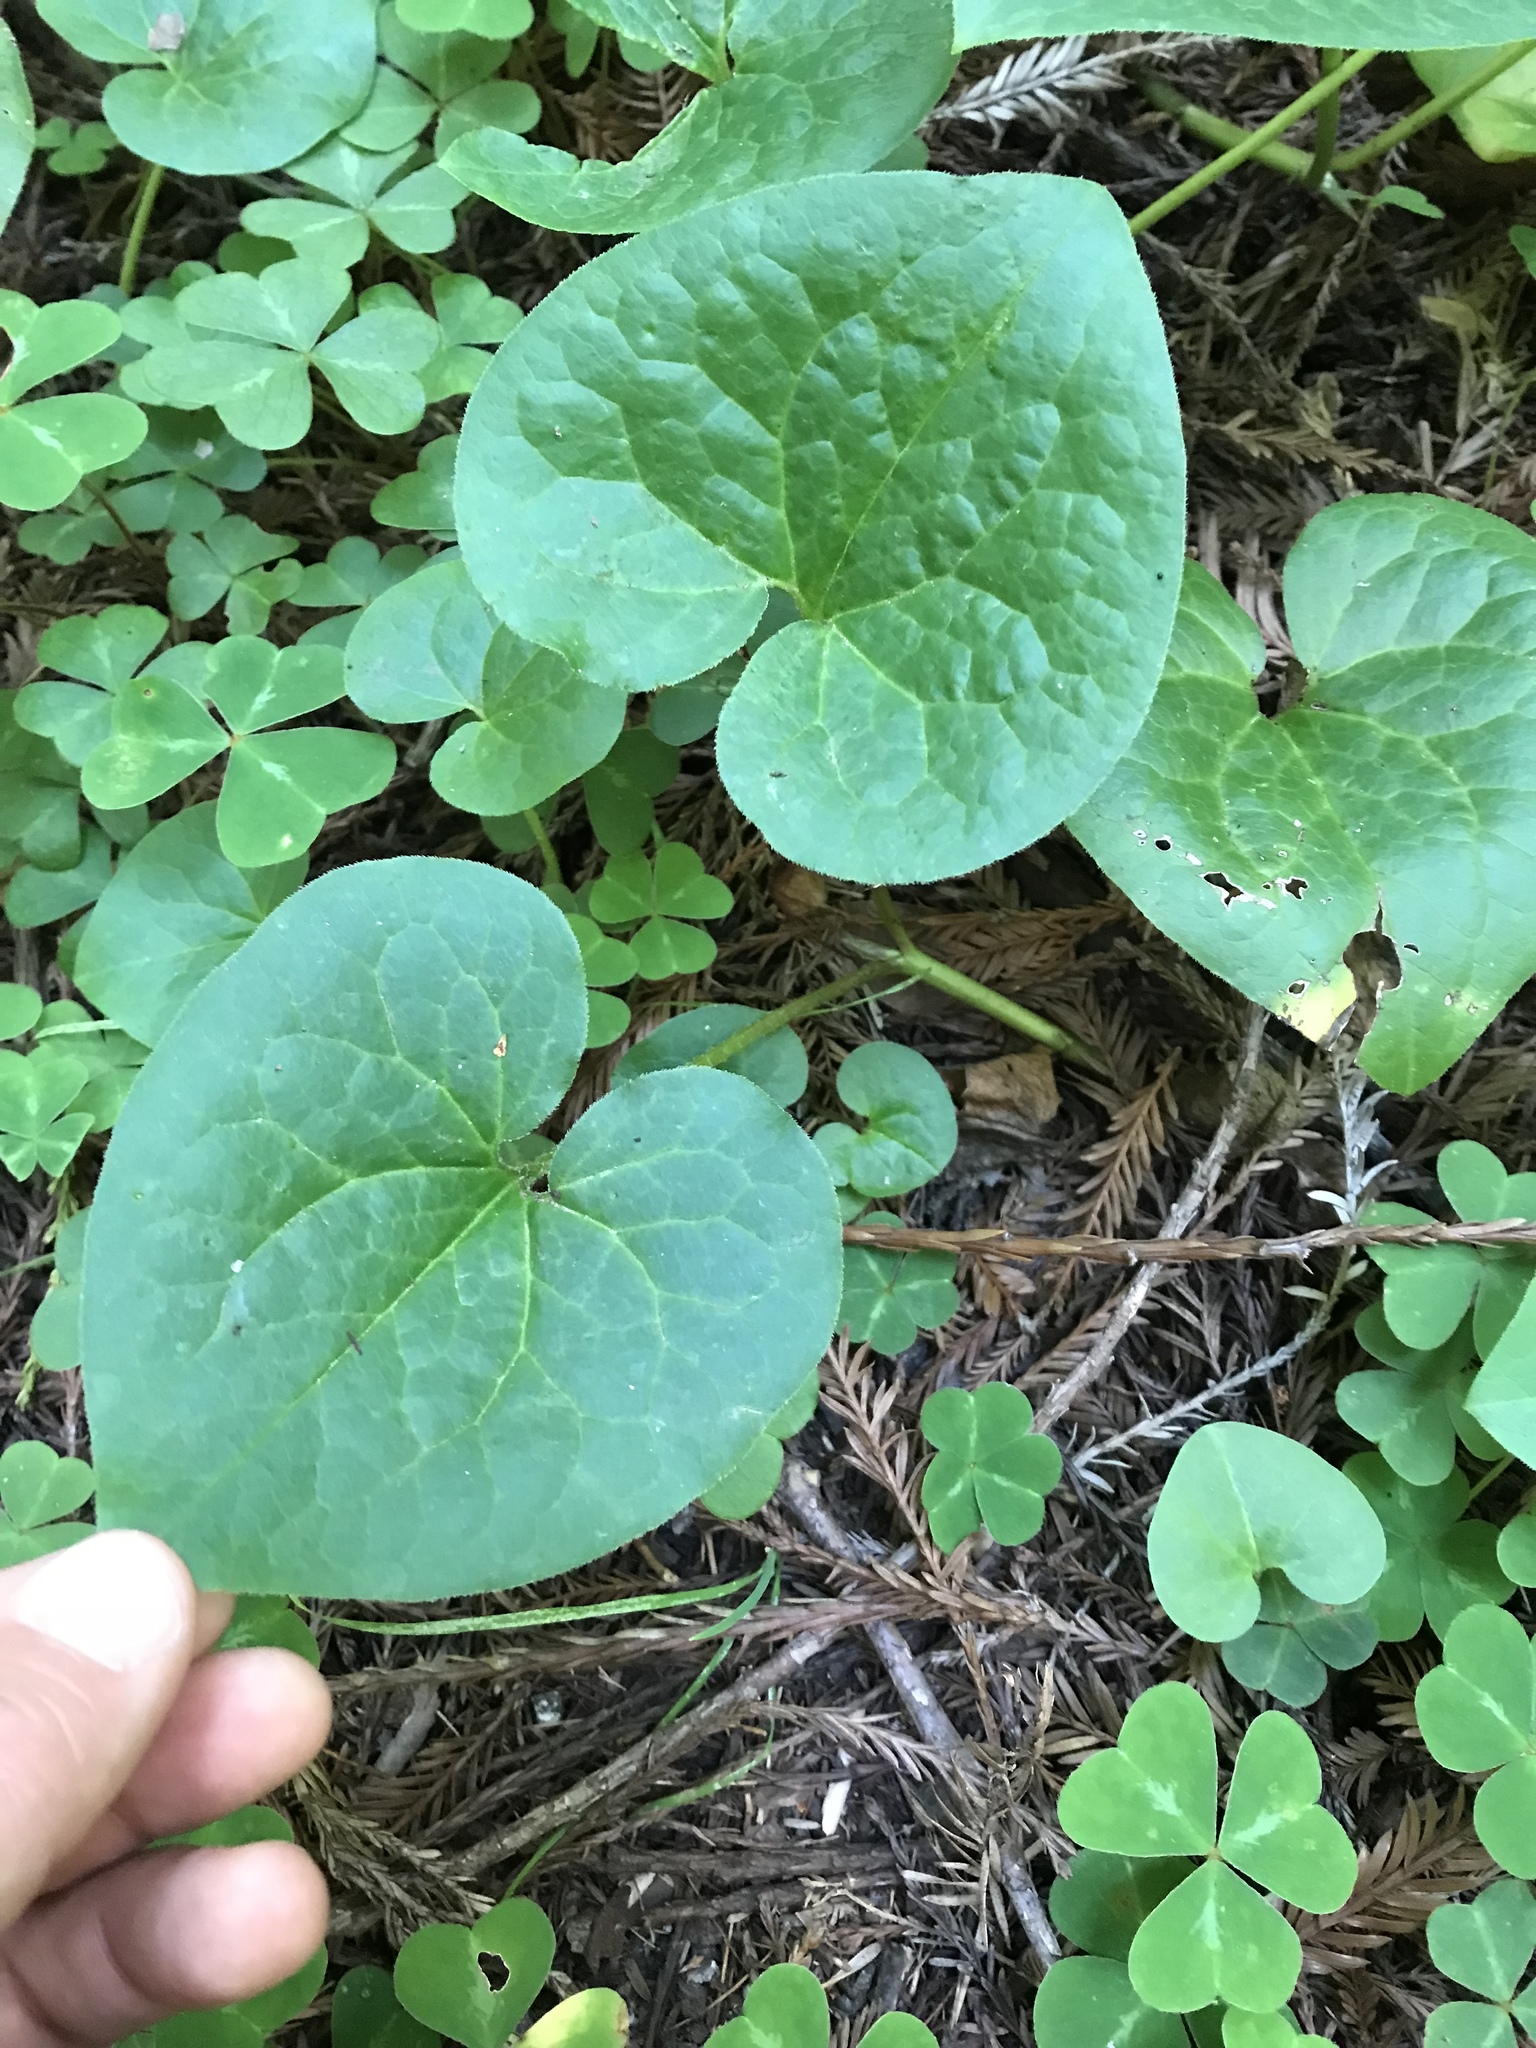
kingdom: Plantae
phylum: Tracheophyta
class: Magnoliopsida
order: Piperales
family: Aristolochiaceae
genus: Asarum
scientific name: Asarum caudatum
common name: Wild ginger
